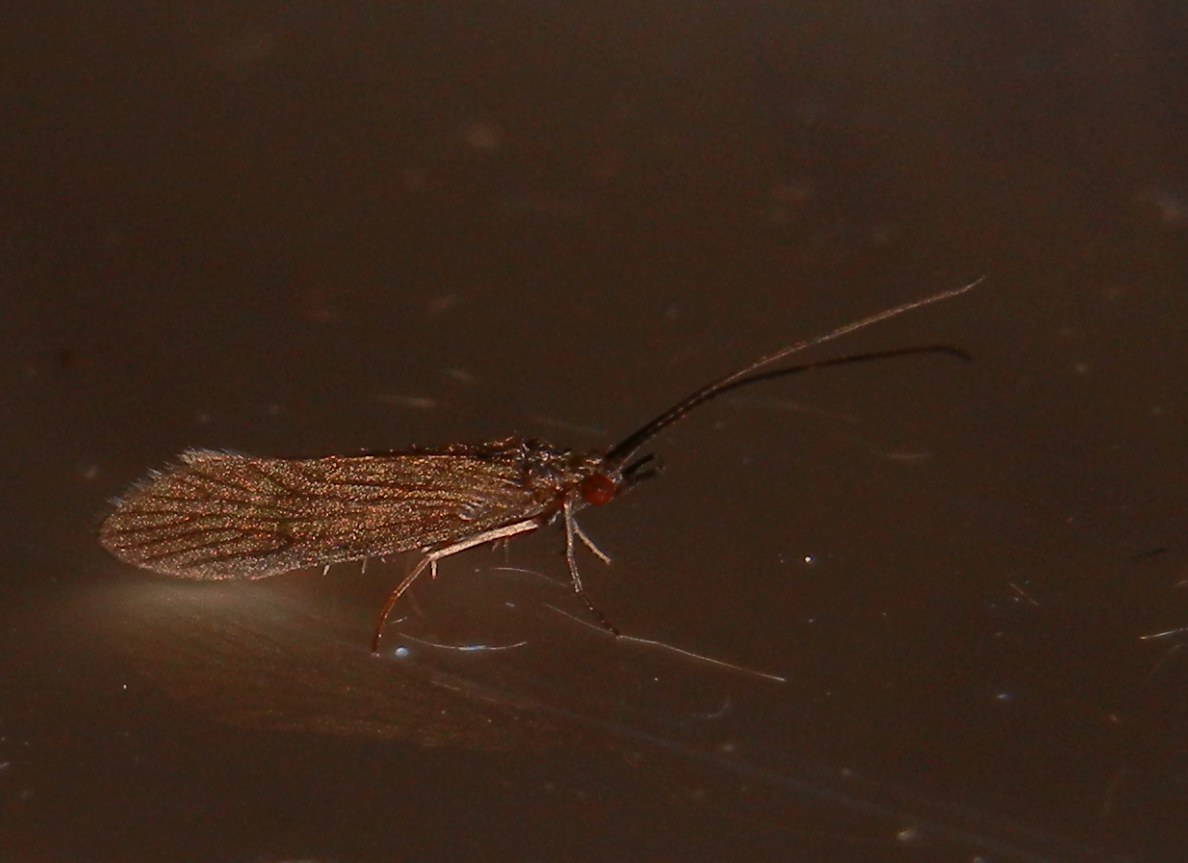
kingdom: Animalia
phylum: Arthropoda
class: Insecta
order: Trichoptera
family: Psychomyiidae
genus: Tinodes
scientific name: Tinodes waeneri
